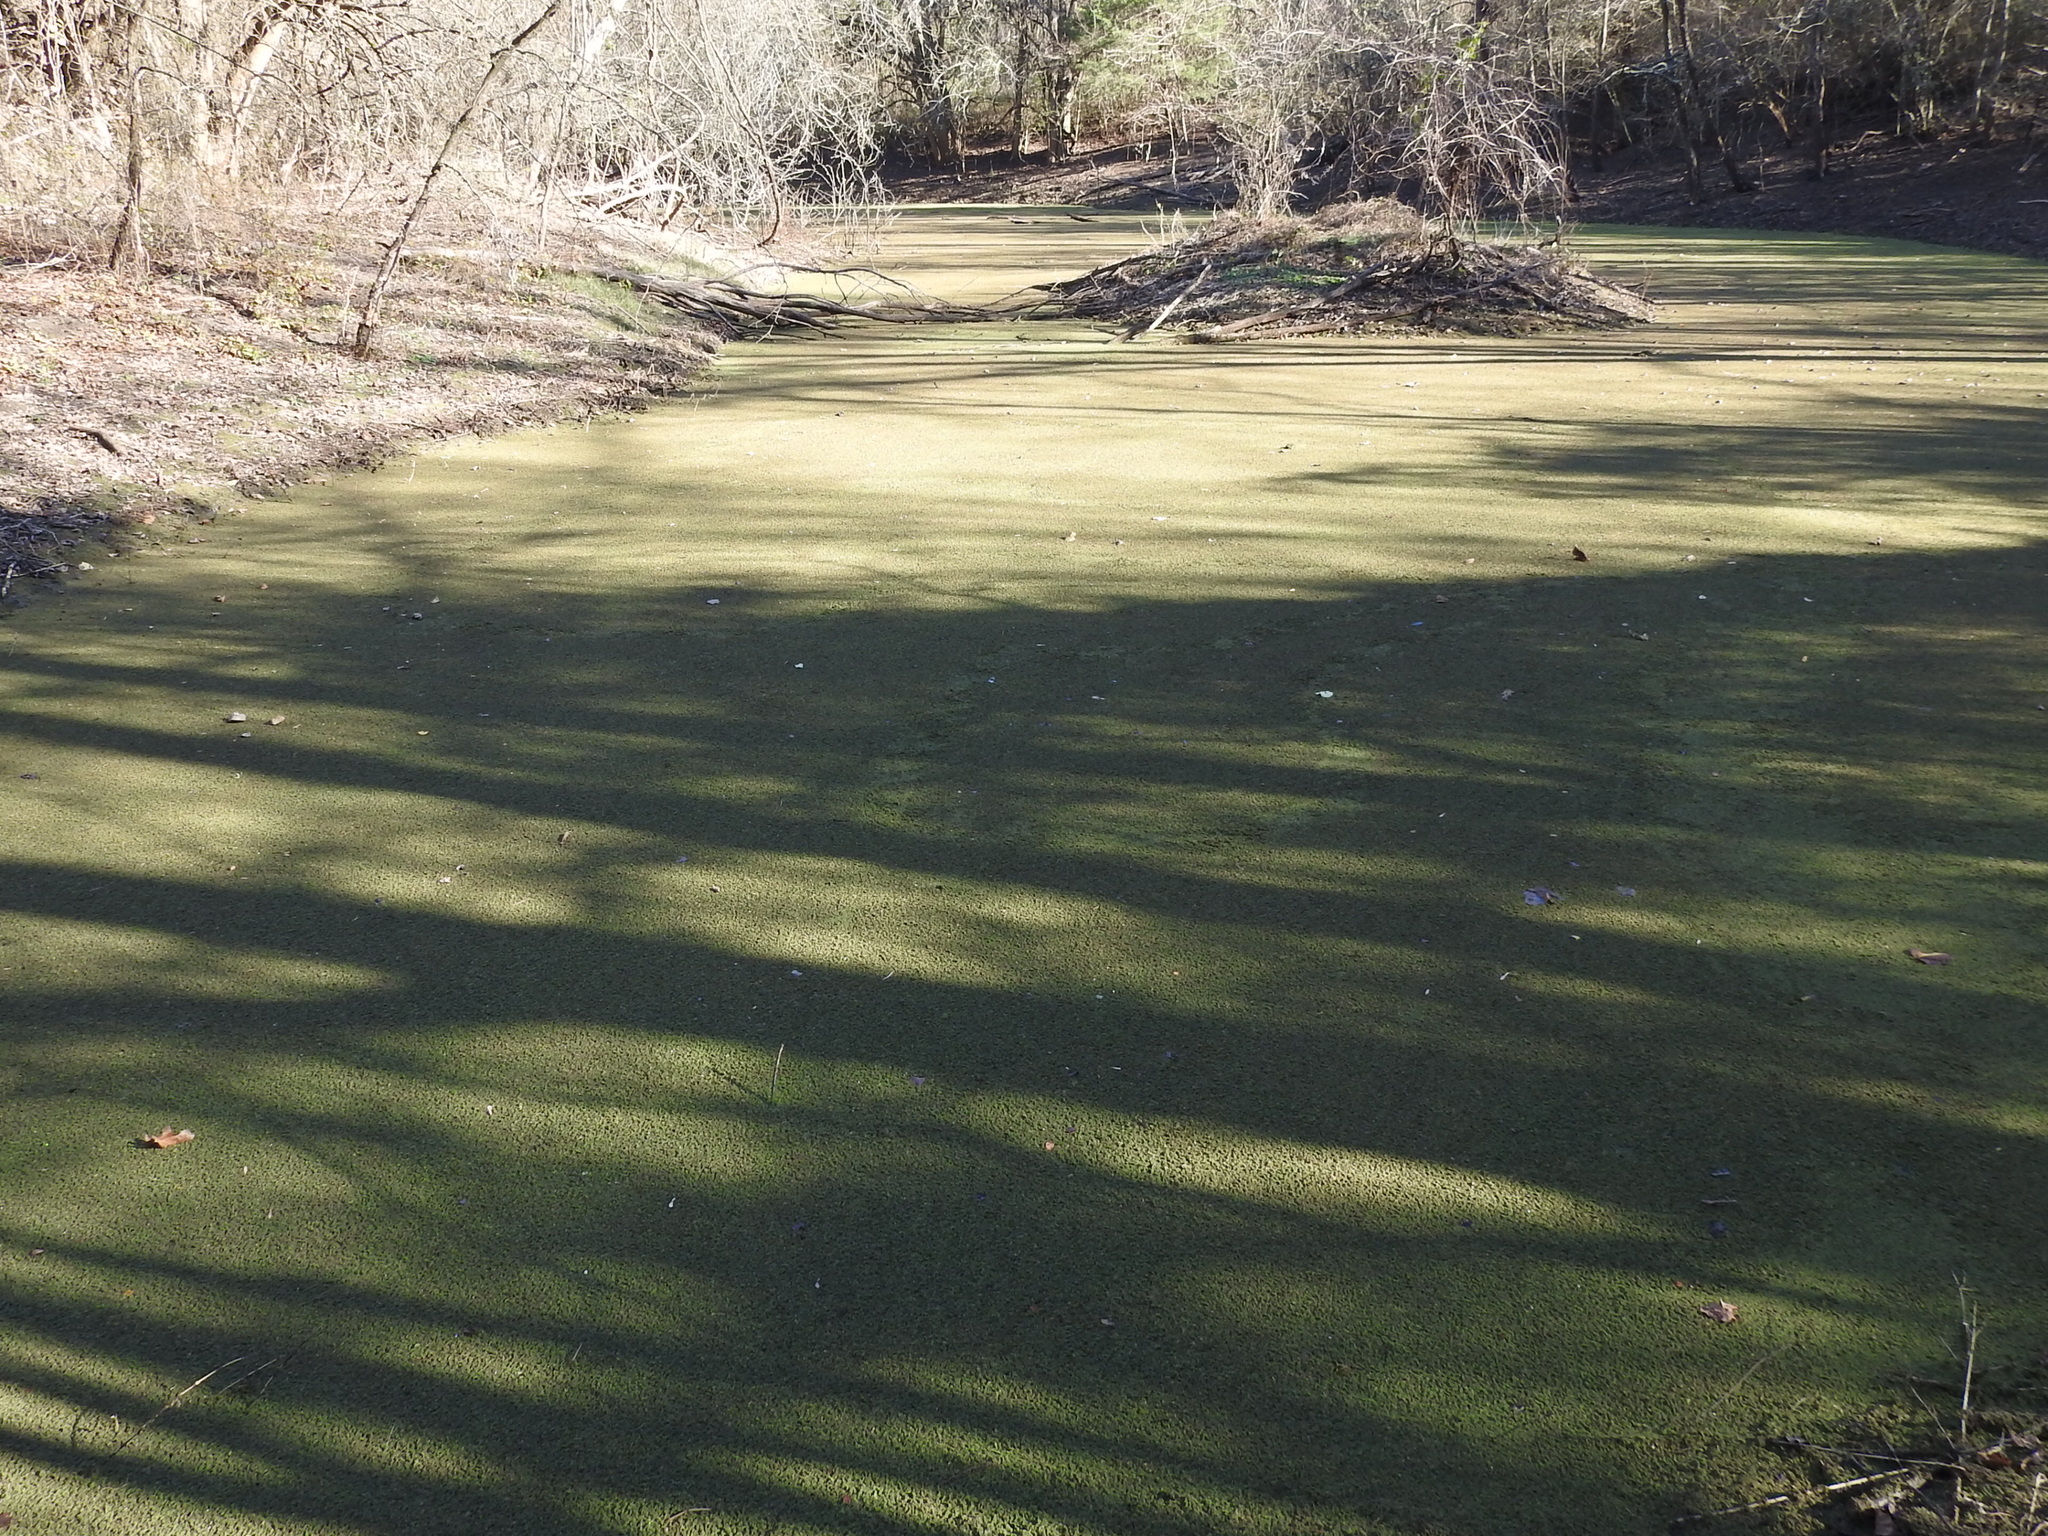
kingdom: Plantae
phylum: Tracheophyta
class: Polypodiopsida
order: Salviniales
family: Salviniaceae
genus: Azolla
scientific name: Azolla caroliniana
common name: Carolina mosquitofern
